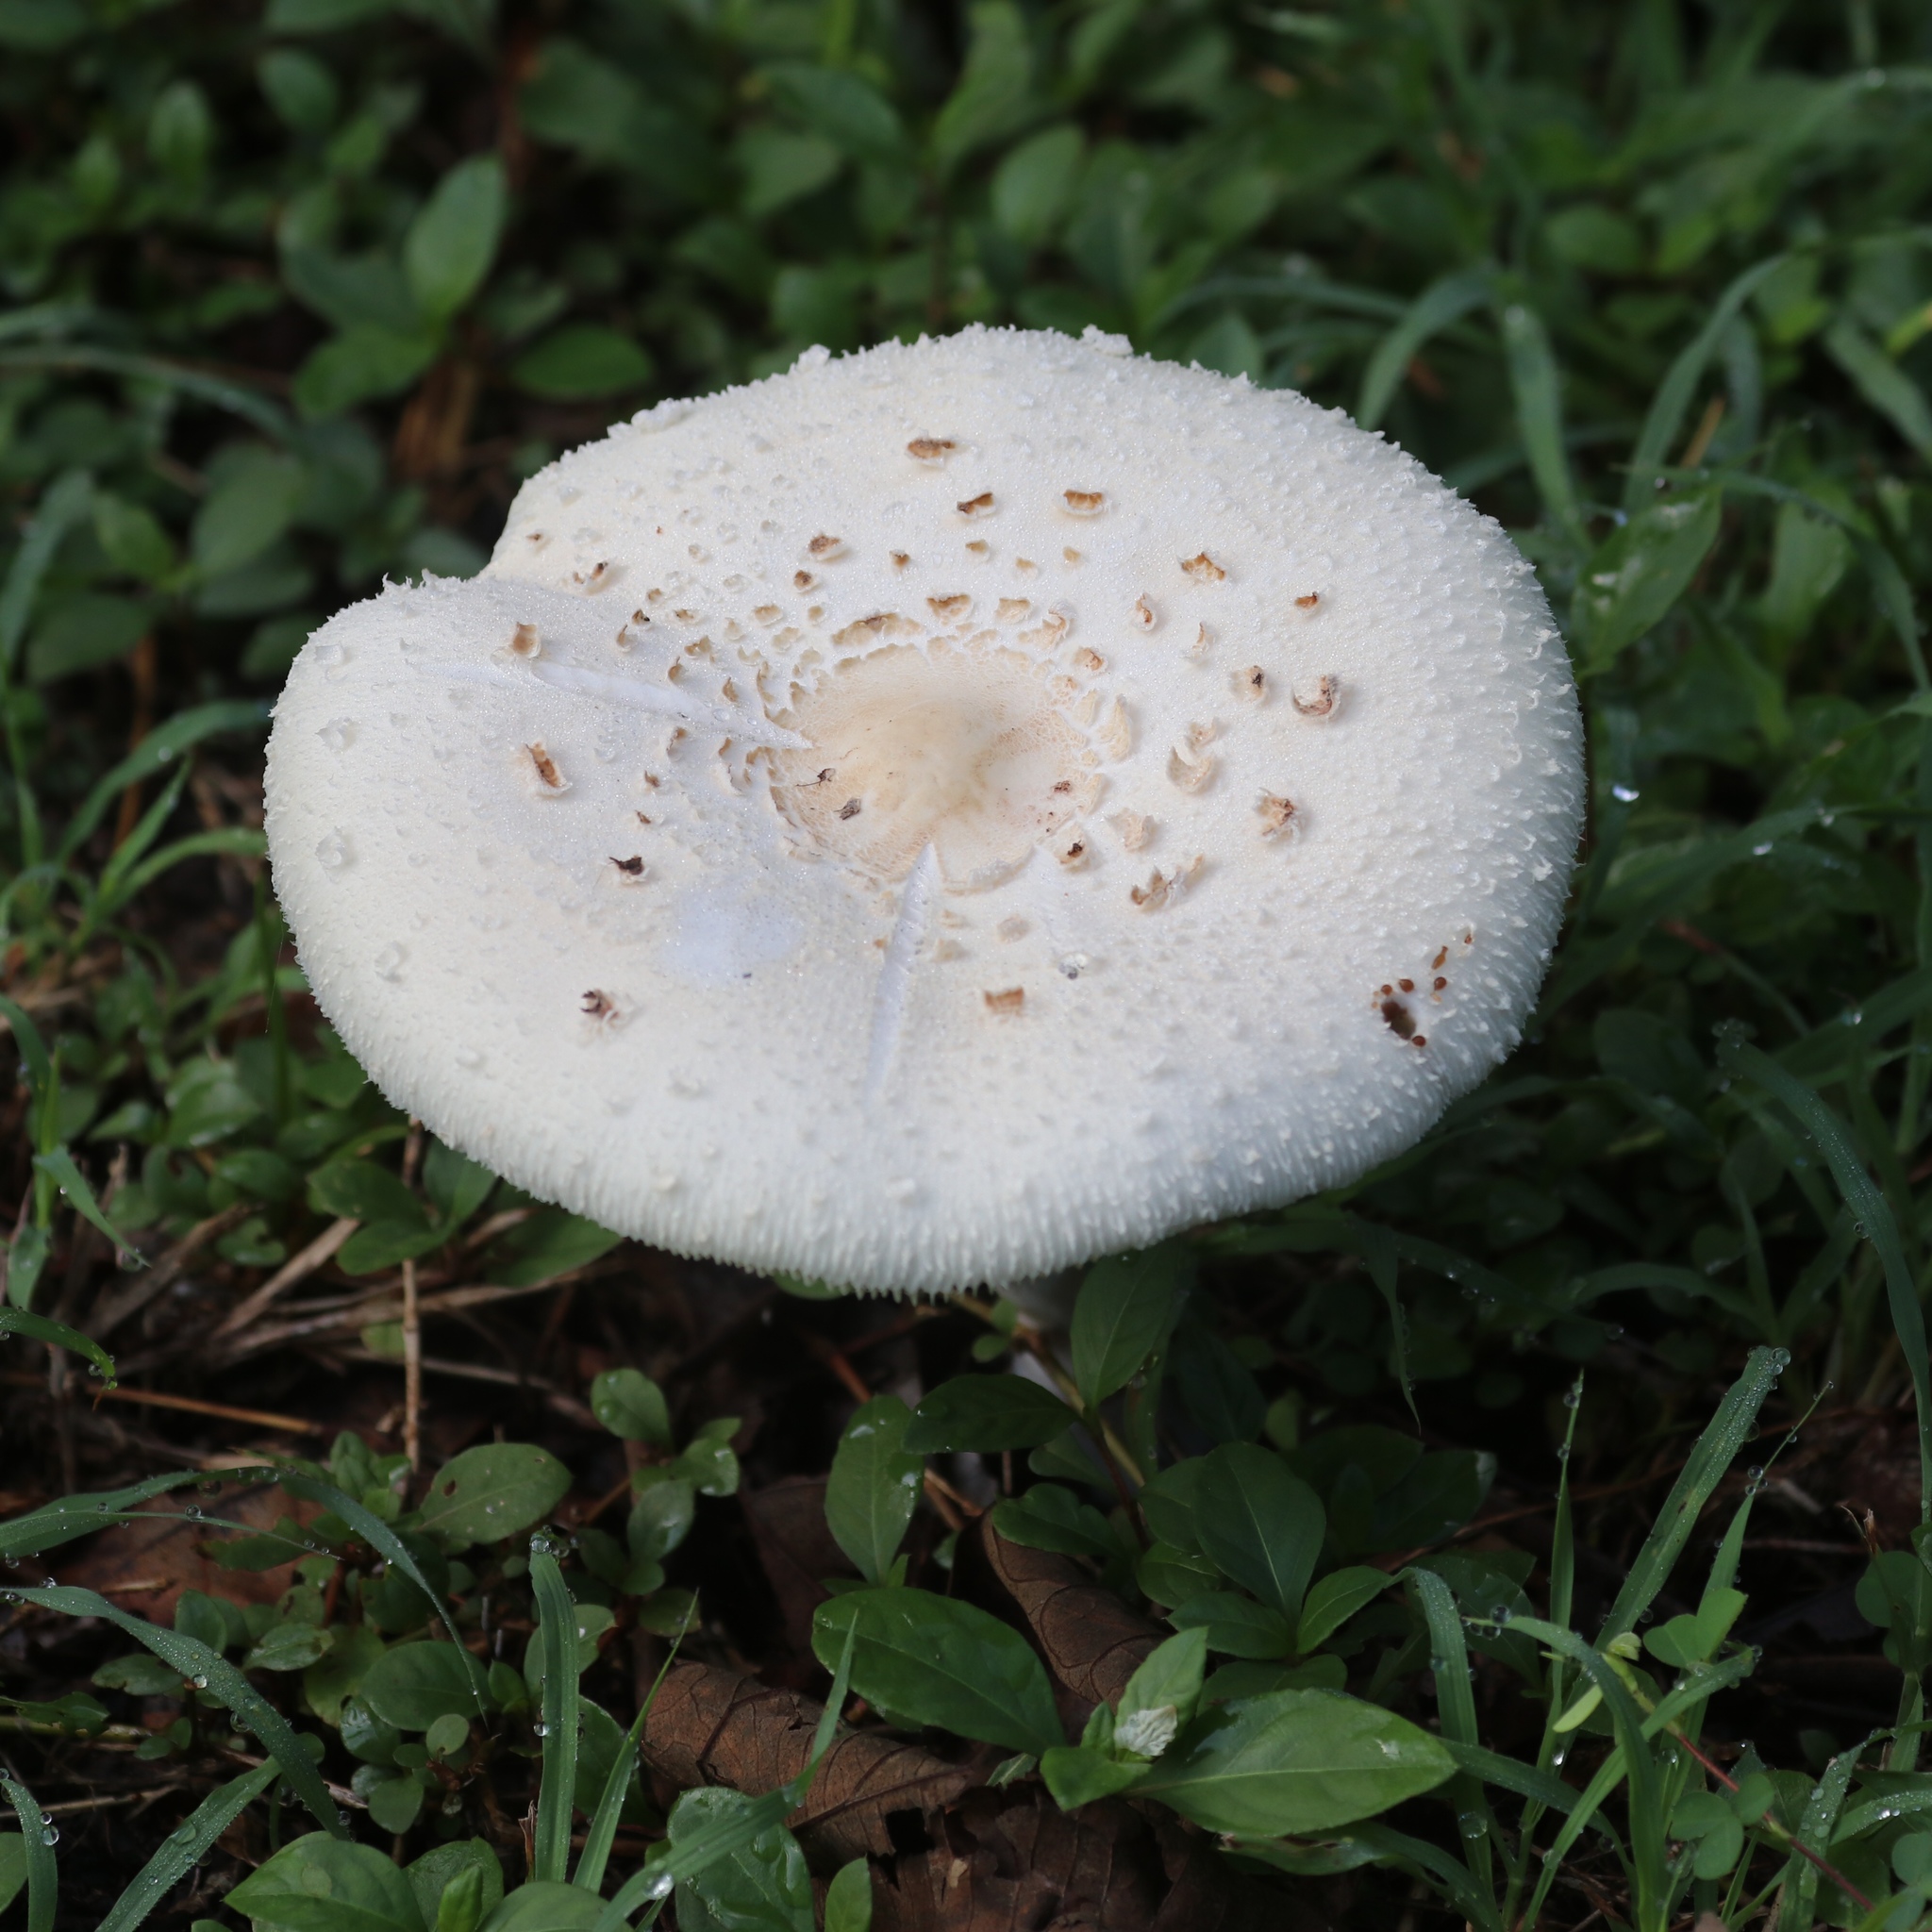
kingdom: Fungi
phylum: Basidiomycota
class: Agaricomycetes
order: Agaricales
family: Agaricaceae
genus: Chlorophyllum
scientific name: Chlorophyllum molybdites
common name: False parasol
